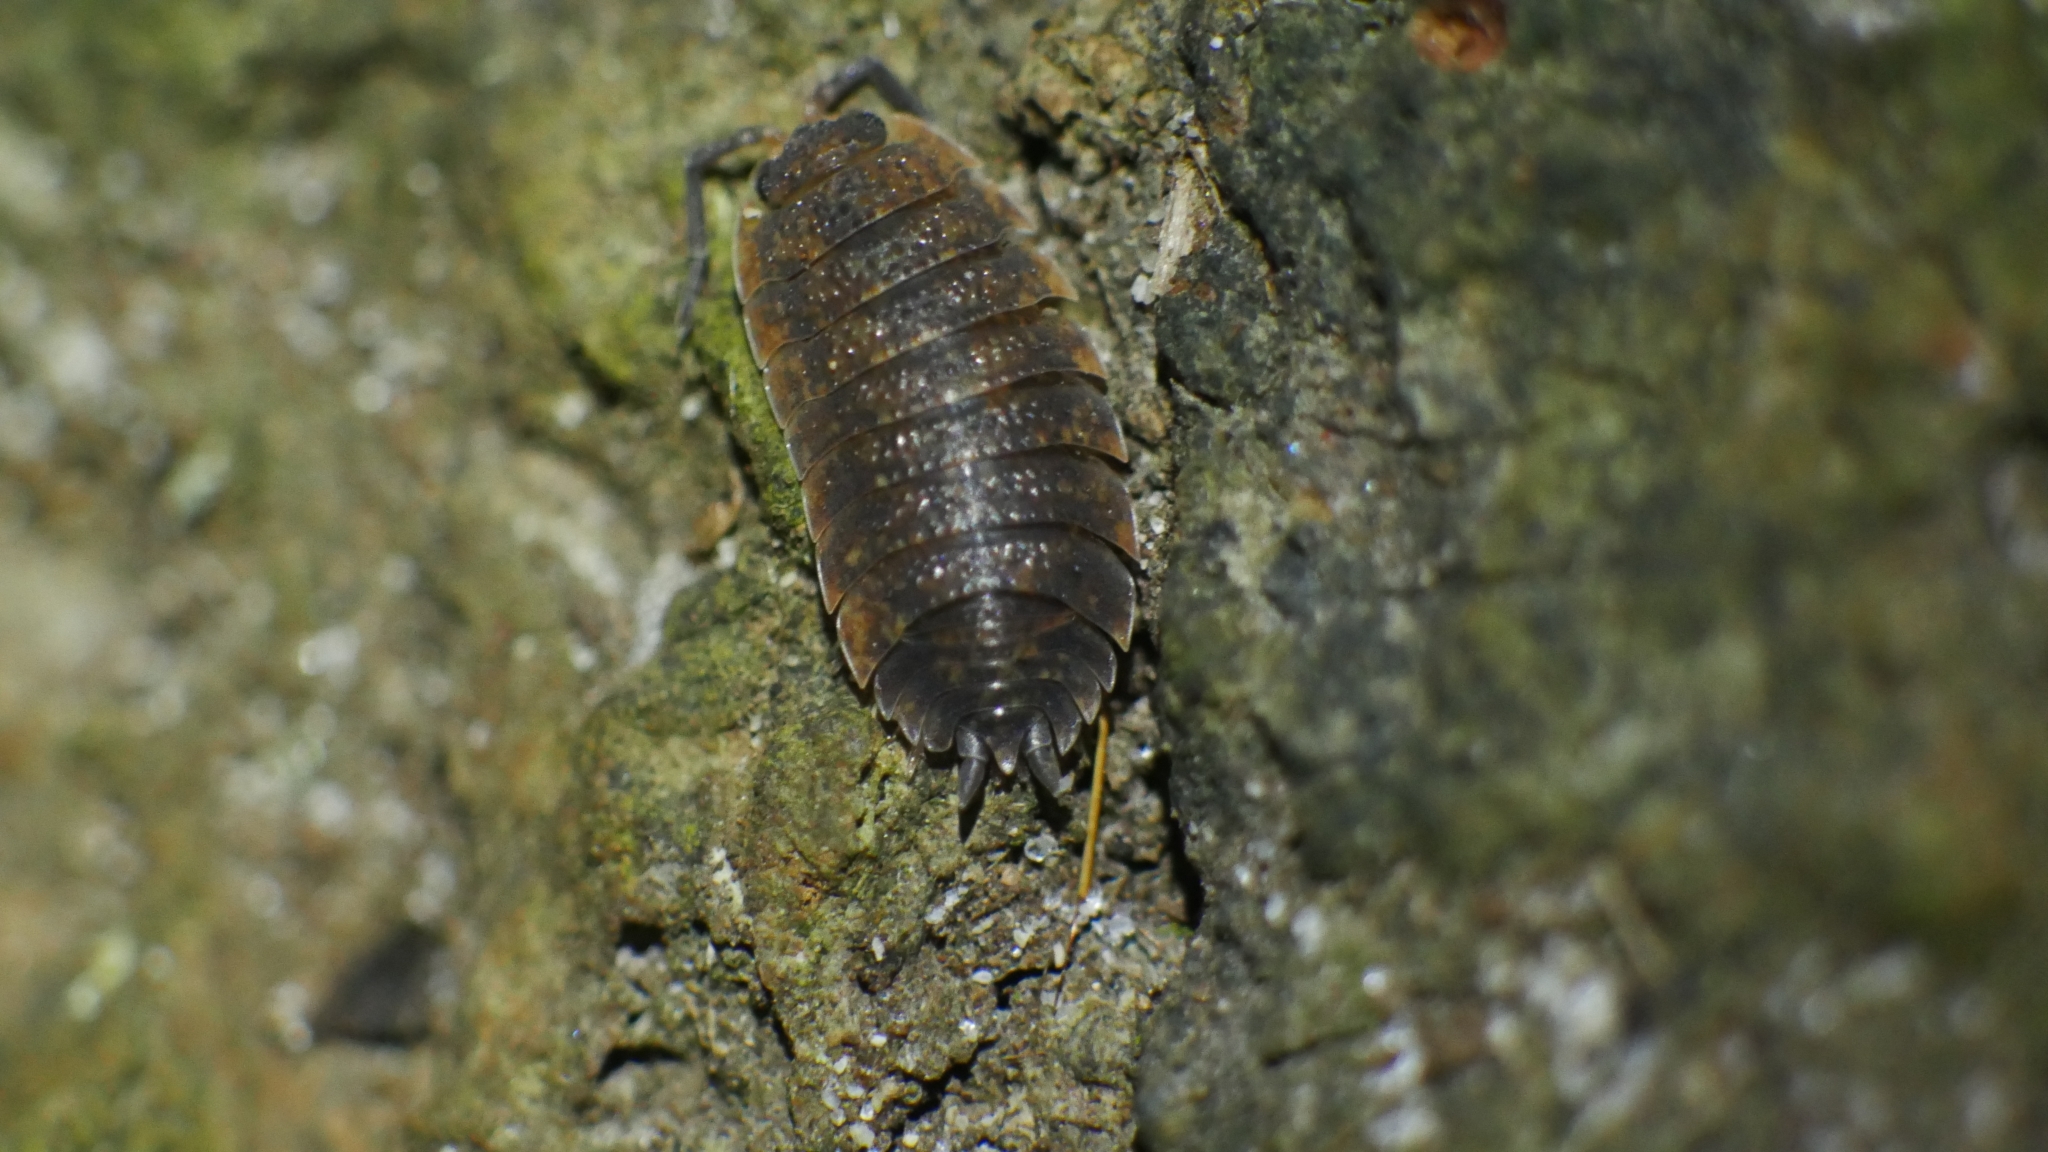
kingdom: Animalia
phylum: Arthropoda
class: Malacostraca
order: Isopoda
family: Porcellionidae
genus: Porcellio
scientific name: Porcellio scaber
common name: Common rough woodlouse
